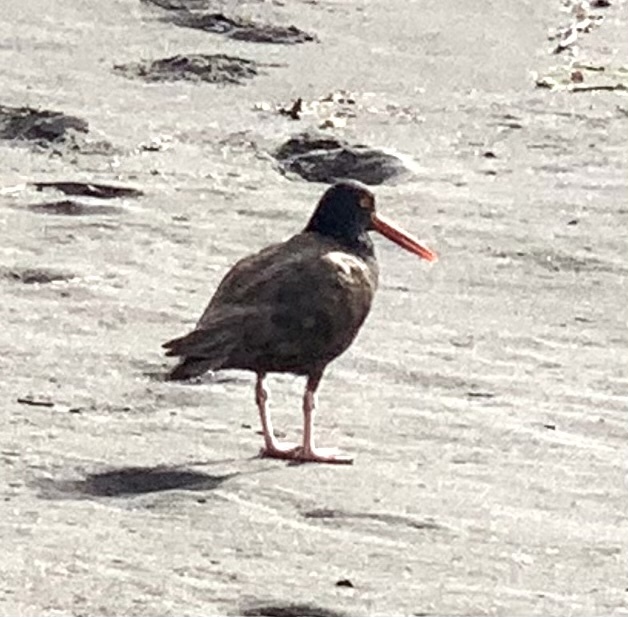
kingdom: Animalia
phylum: Chordata
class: Aves
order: Charadriiformes
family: Haematopodidae
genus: Haematopus
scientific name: Haematopus bachmani
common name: Black oystercatcher
